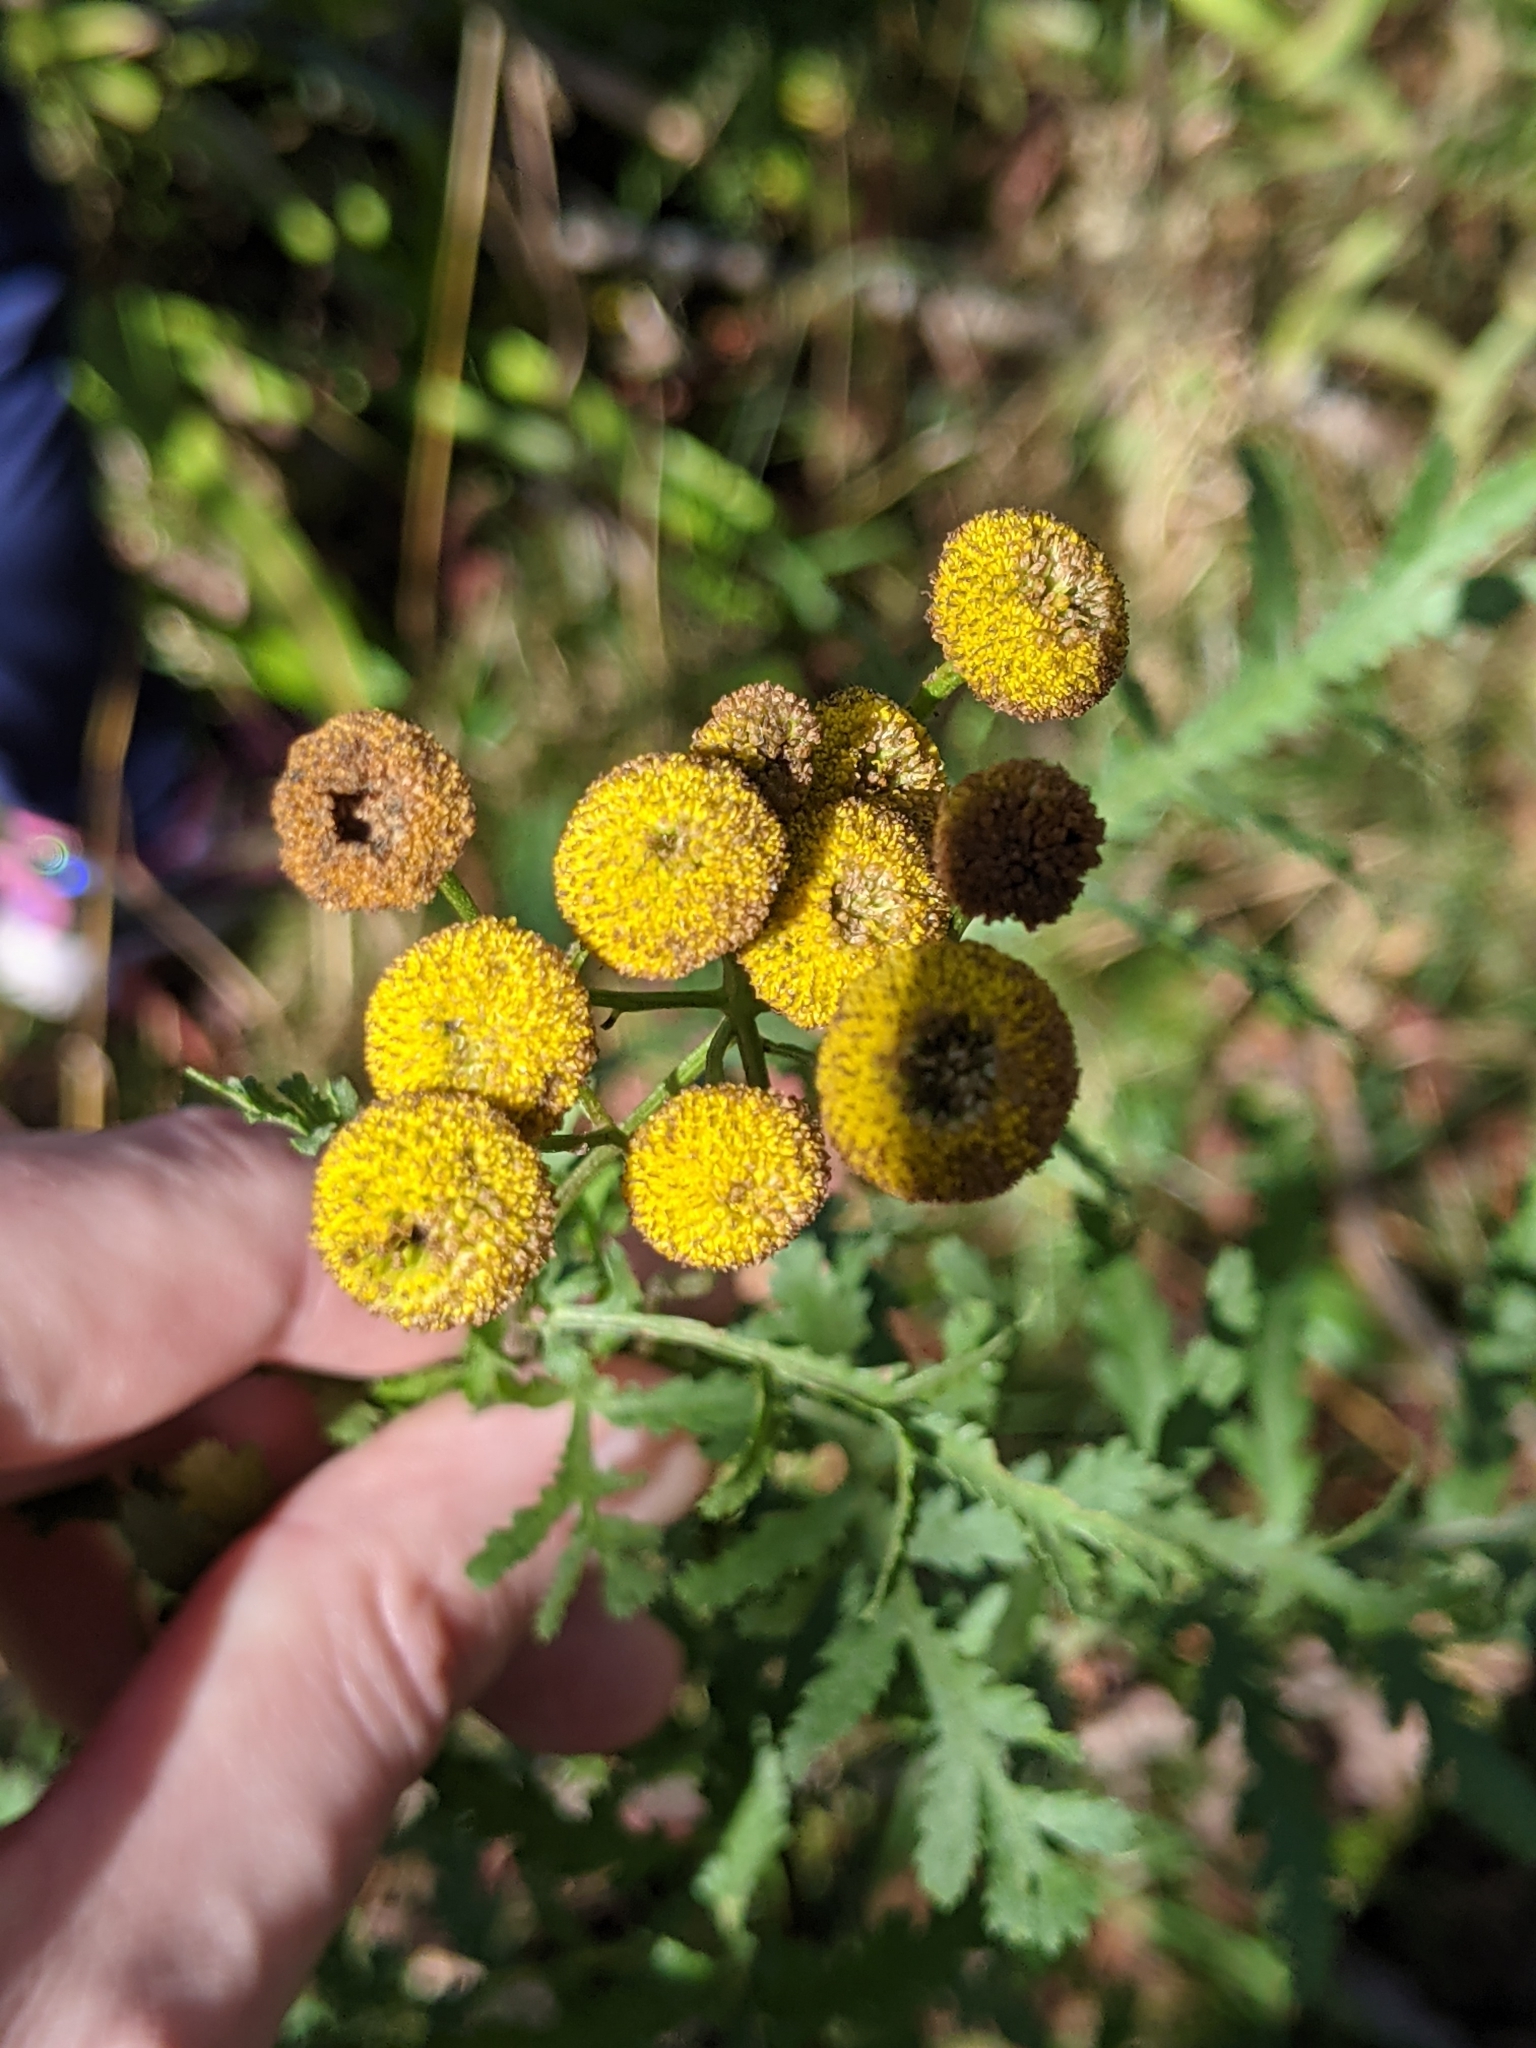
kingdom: Plantae
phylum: Tracheophyta
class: Magnoliopsida
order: Asterales
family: Asteraceae
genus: Tanacetum
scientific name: Tanacetum vulgare
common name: Common tansy
